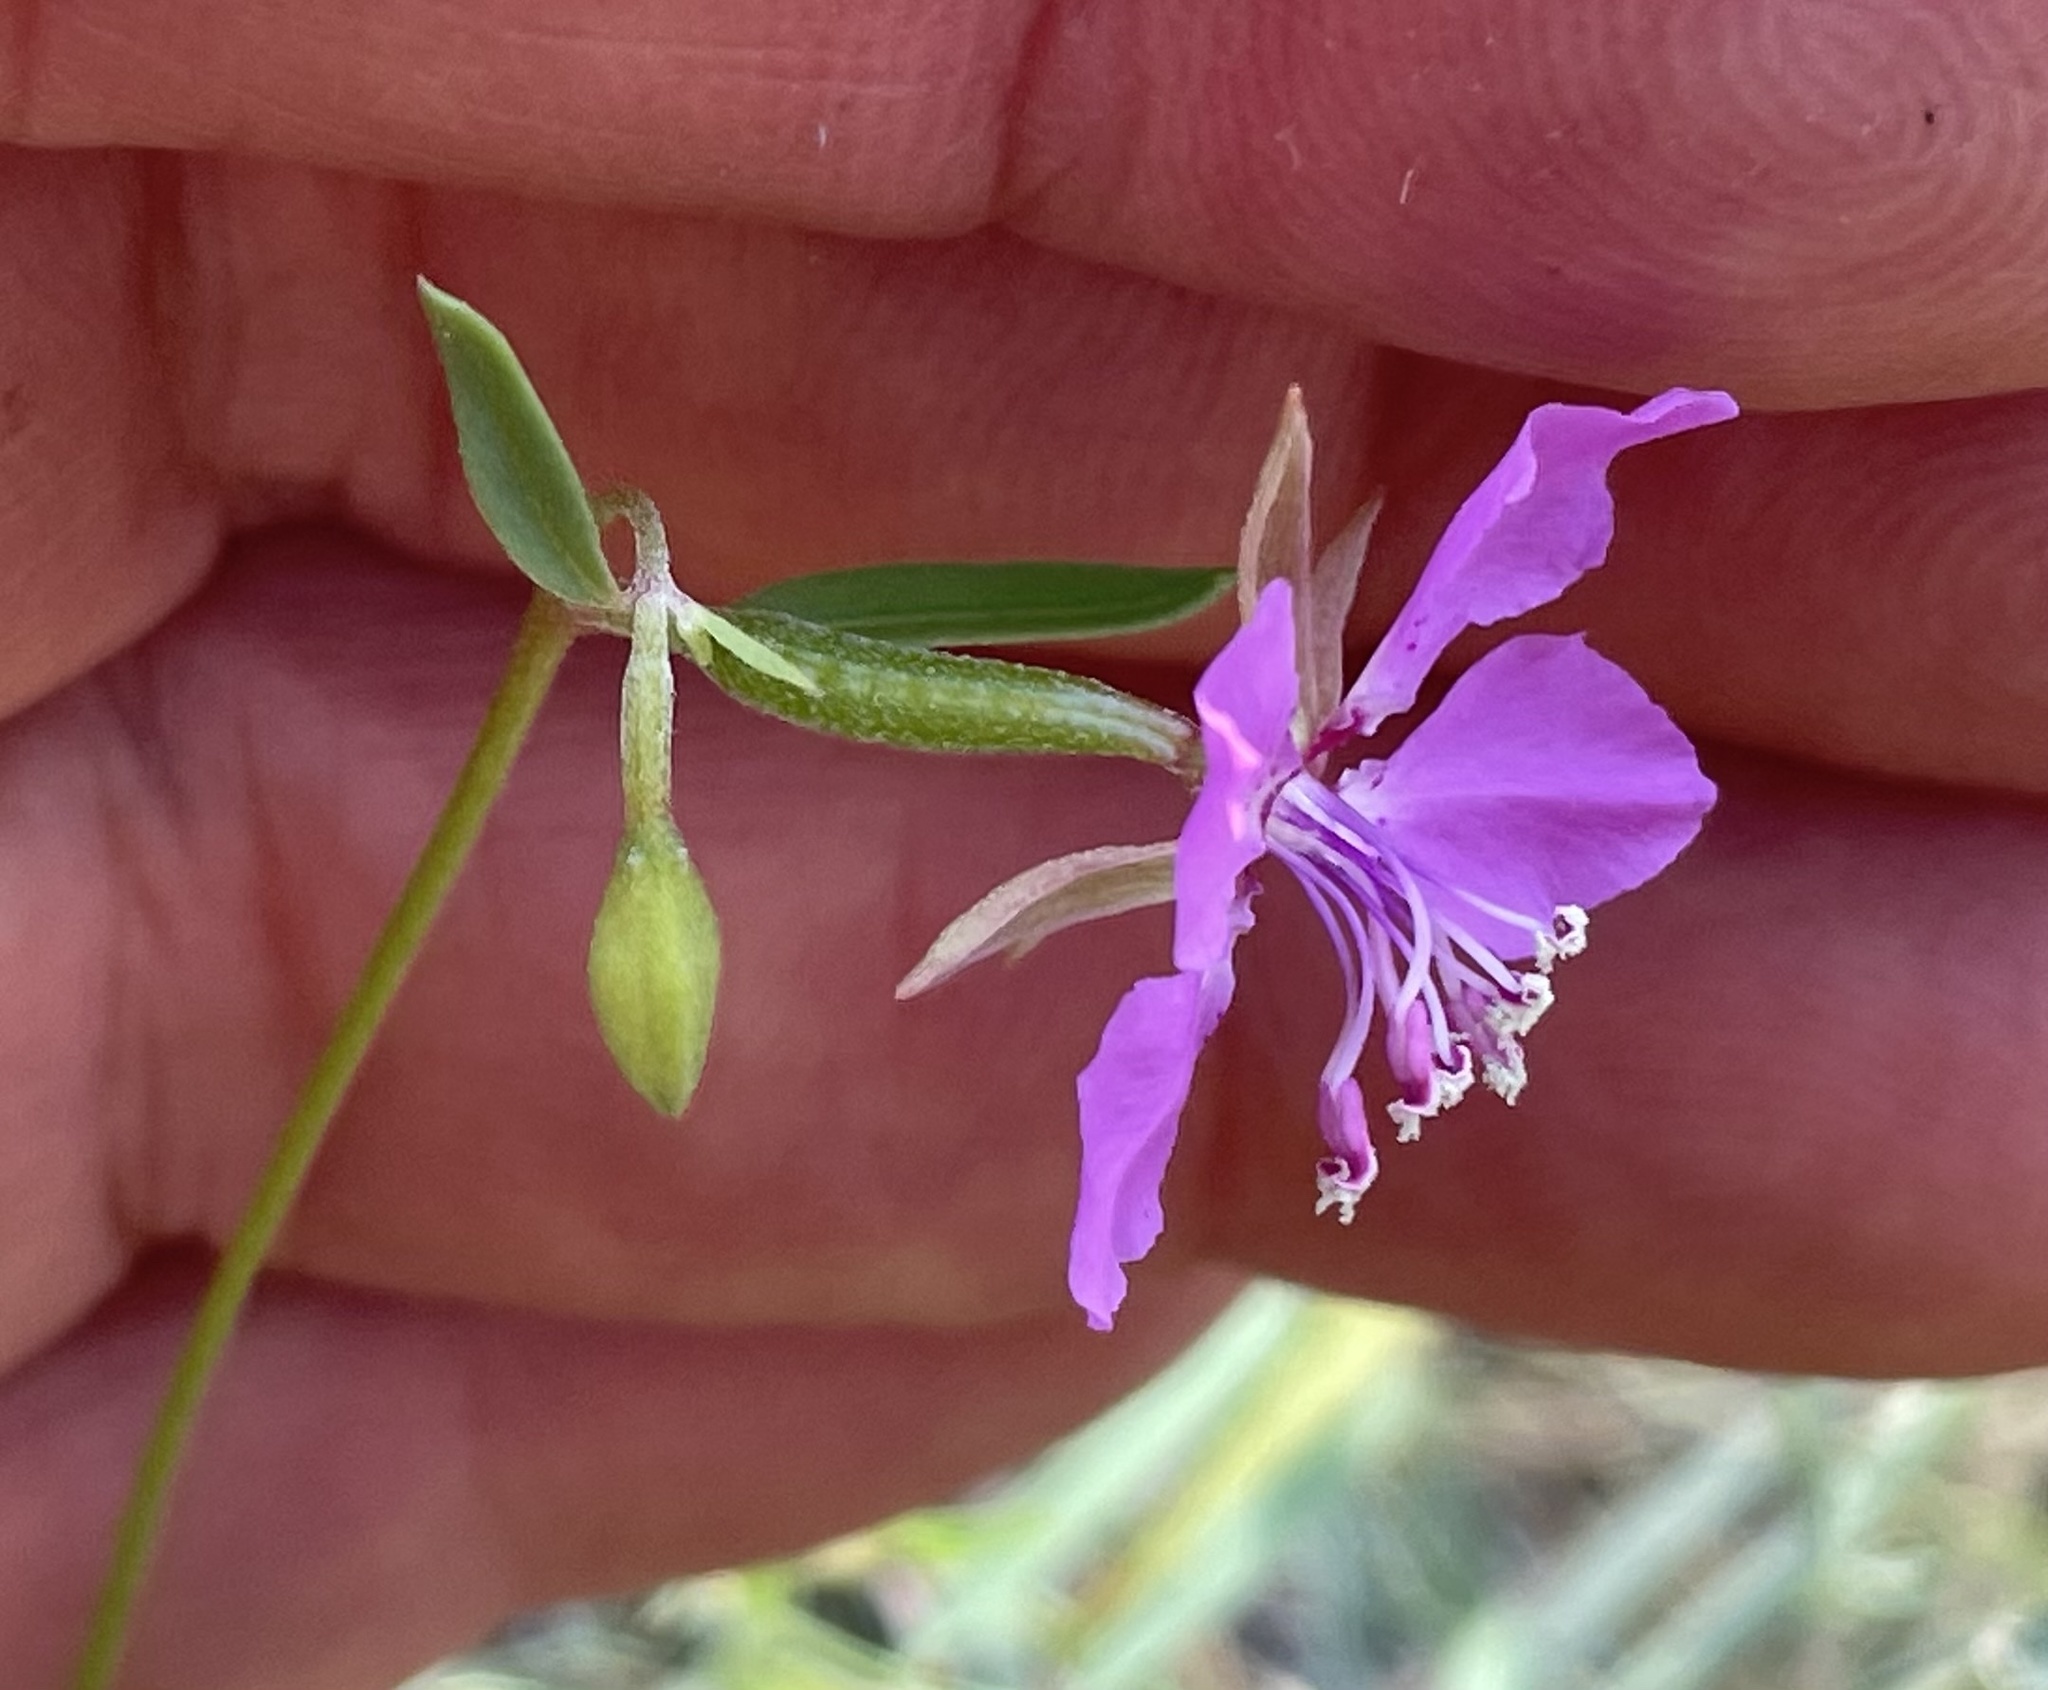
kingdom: Plantae
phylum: Tracheophyta
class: Magnoliopsida
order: Myrtales
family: Onagraceae
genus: Clarkia
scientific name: Clarkia rhomboidea
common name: Broadleaf clarkia
